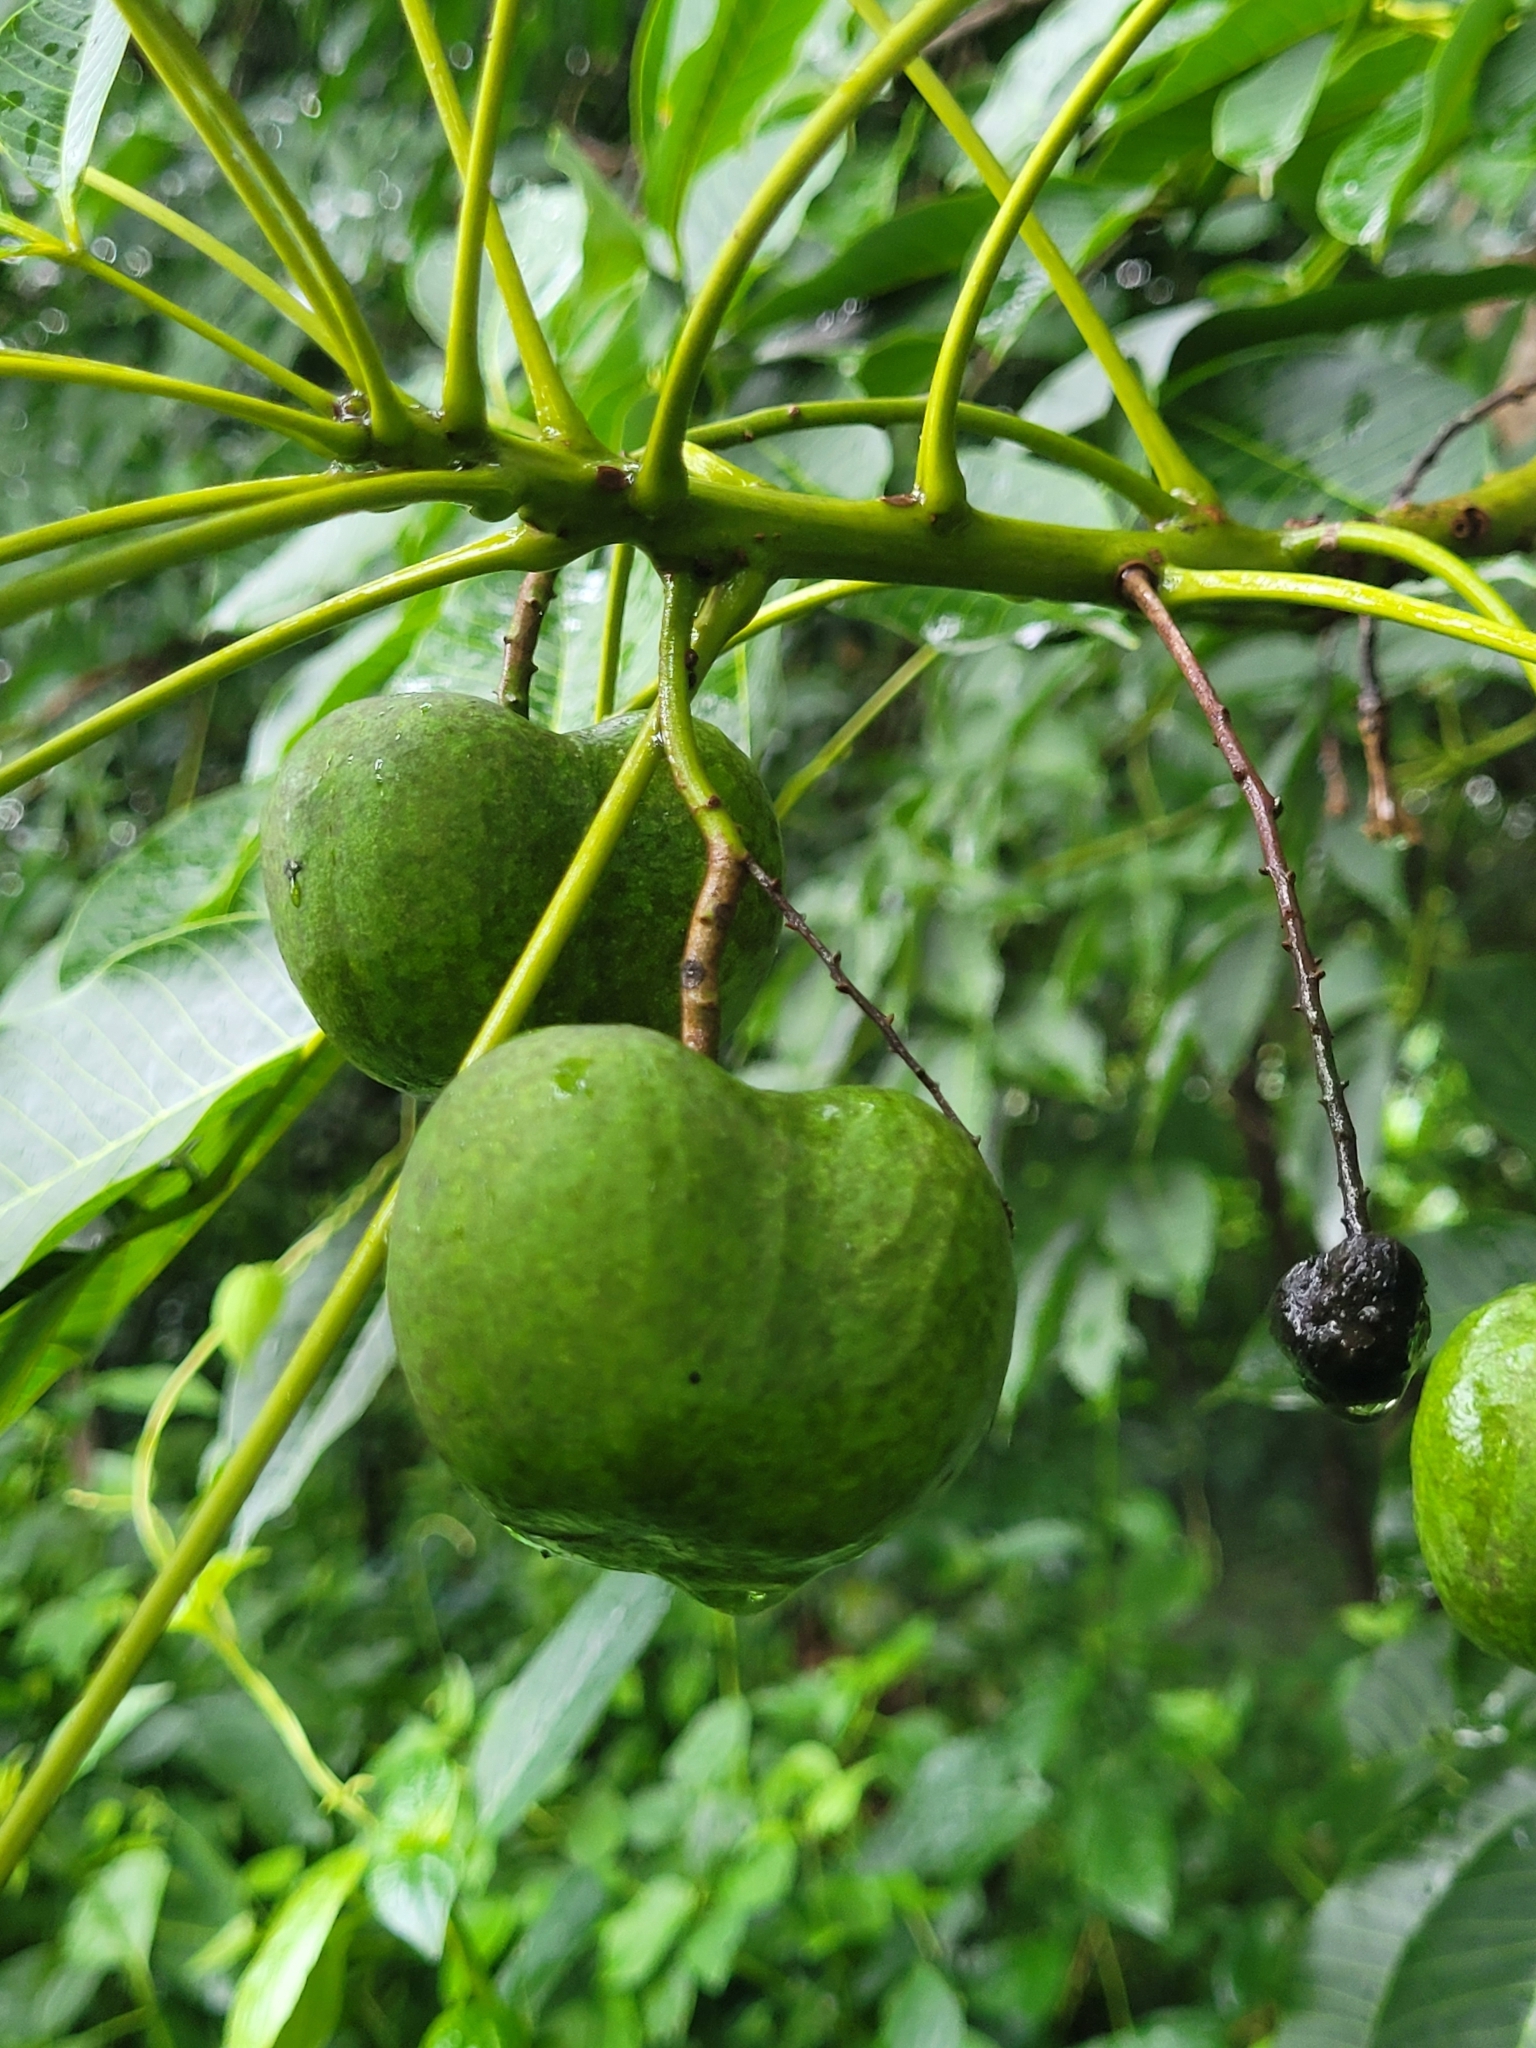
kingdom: Plantae
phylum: Tracheophyta
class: Magnoliopsida
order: Malpighiales
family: Euphorbiaceae
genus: Hevea
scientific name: Hevea brasiliensis
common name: Natural rubber
